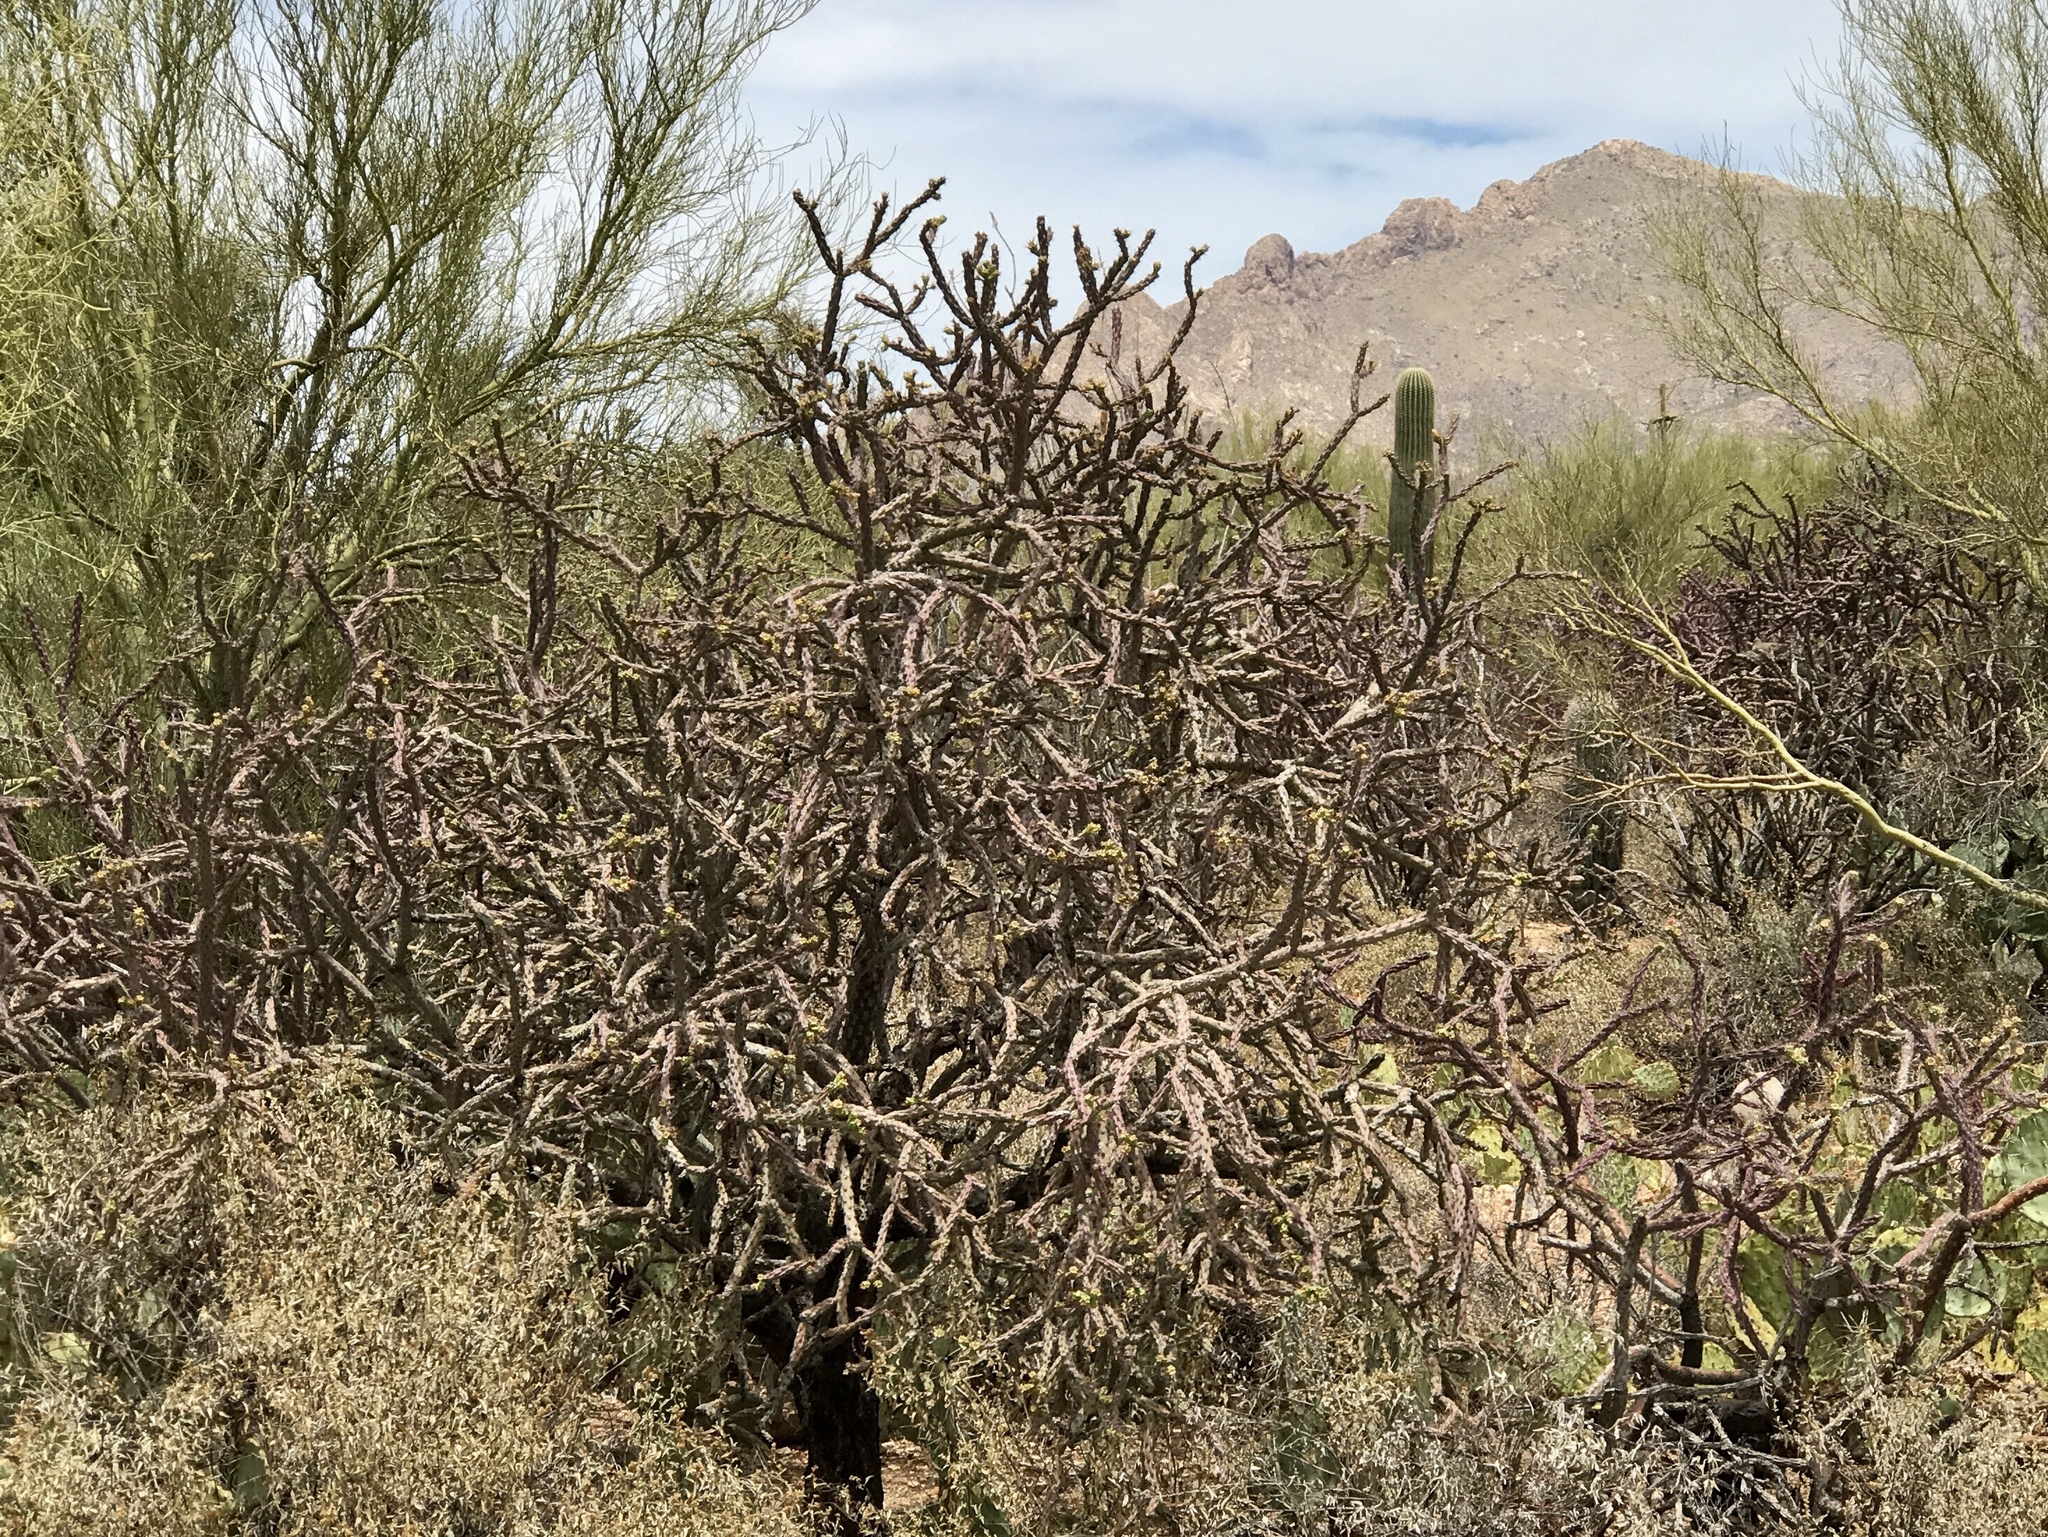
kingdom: Plantae
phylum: Tracheophyta
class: Magnoliopsida
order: Caryophyllales
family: Cactaceae
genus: Cylindropuntia
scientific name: Cylindropuntia thurberi
